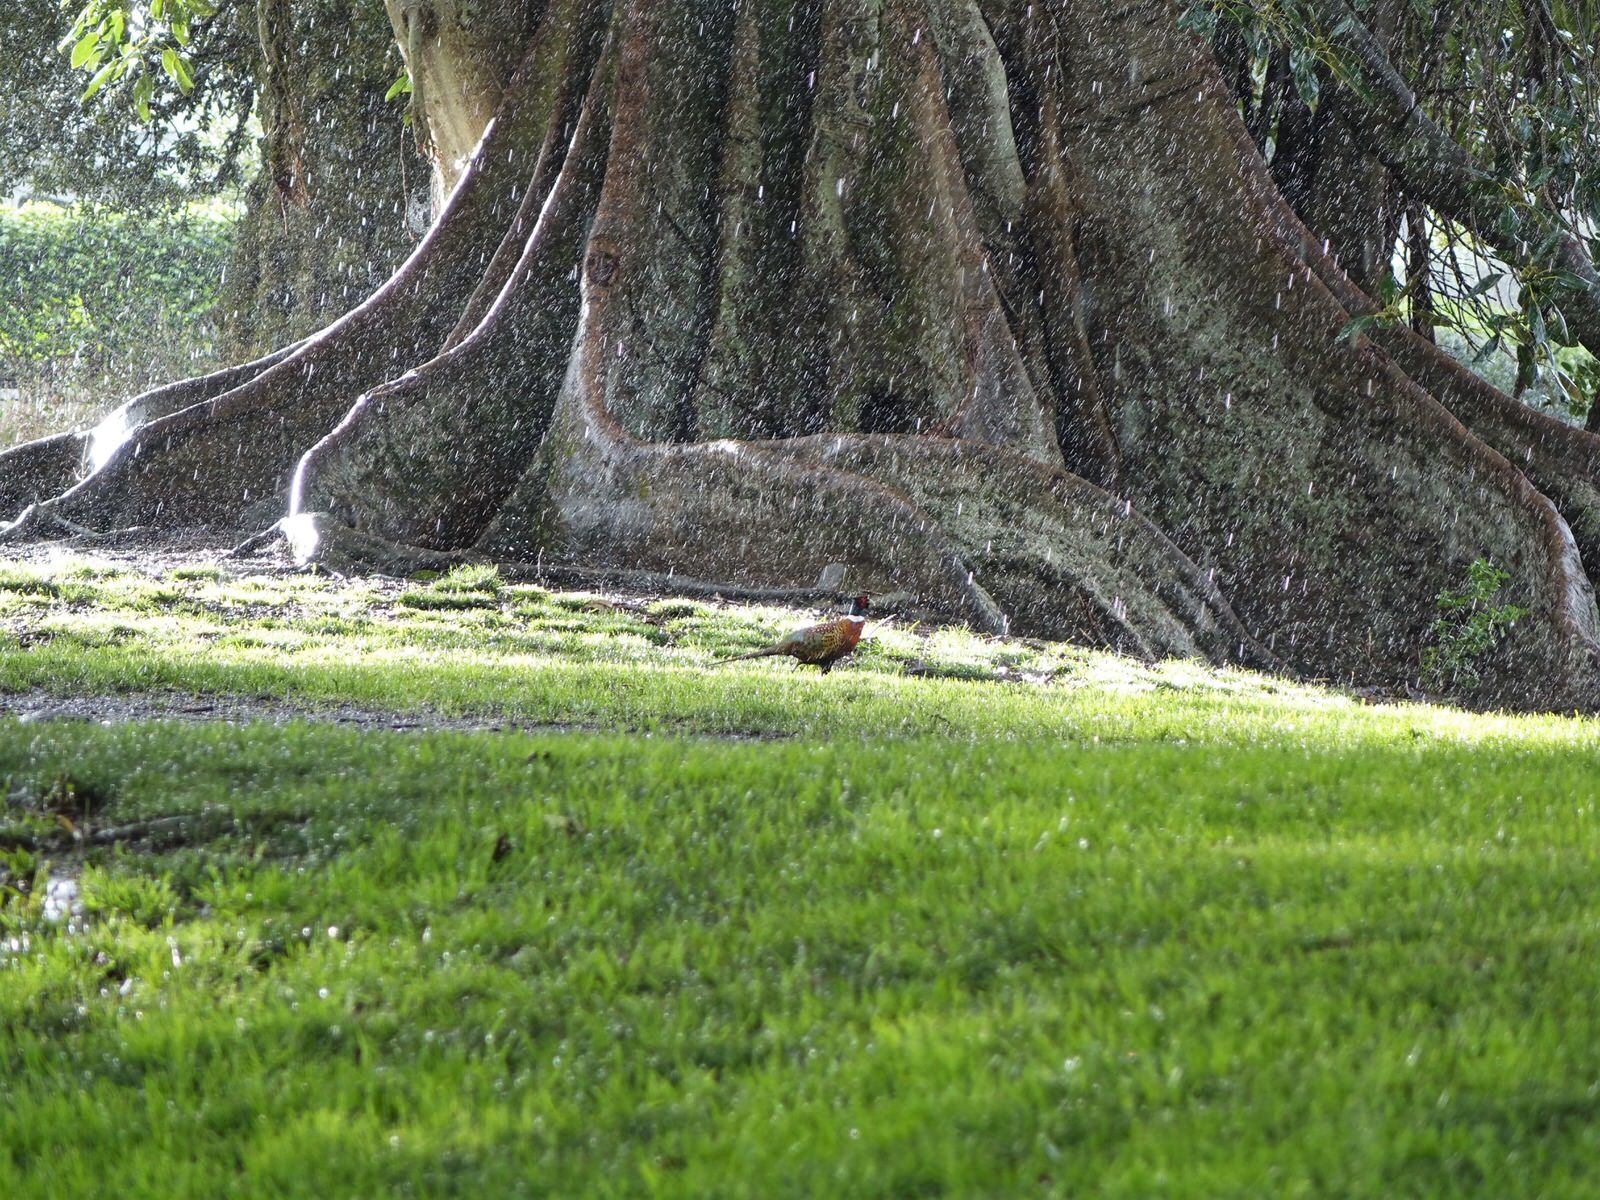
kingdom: Animalia
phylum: Chordata
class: Aves
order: Galliformes
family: Phasianidae
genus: Phasianus
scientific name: Phasianus colchicus
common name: Common pheasant
